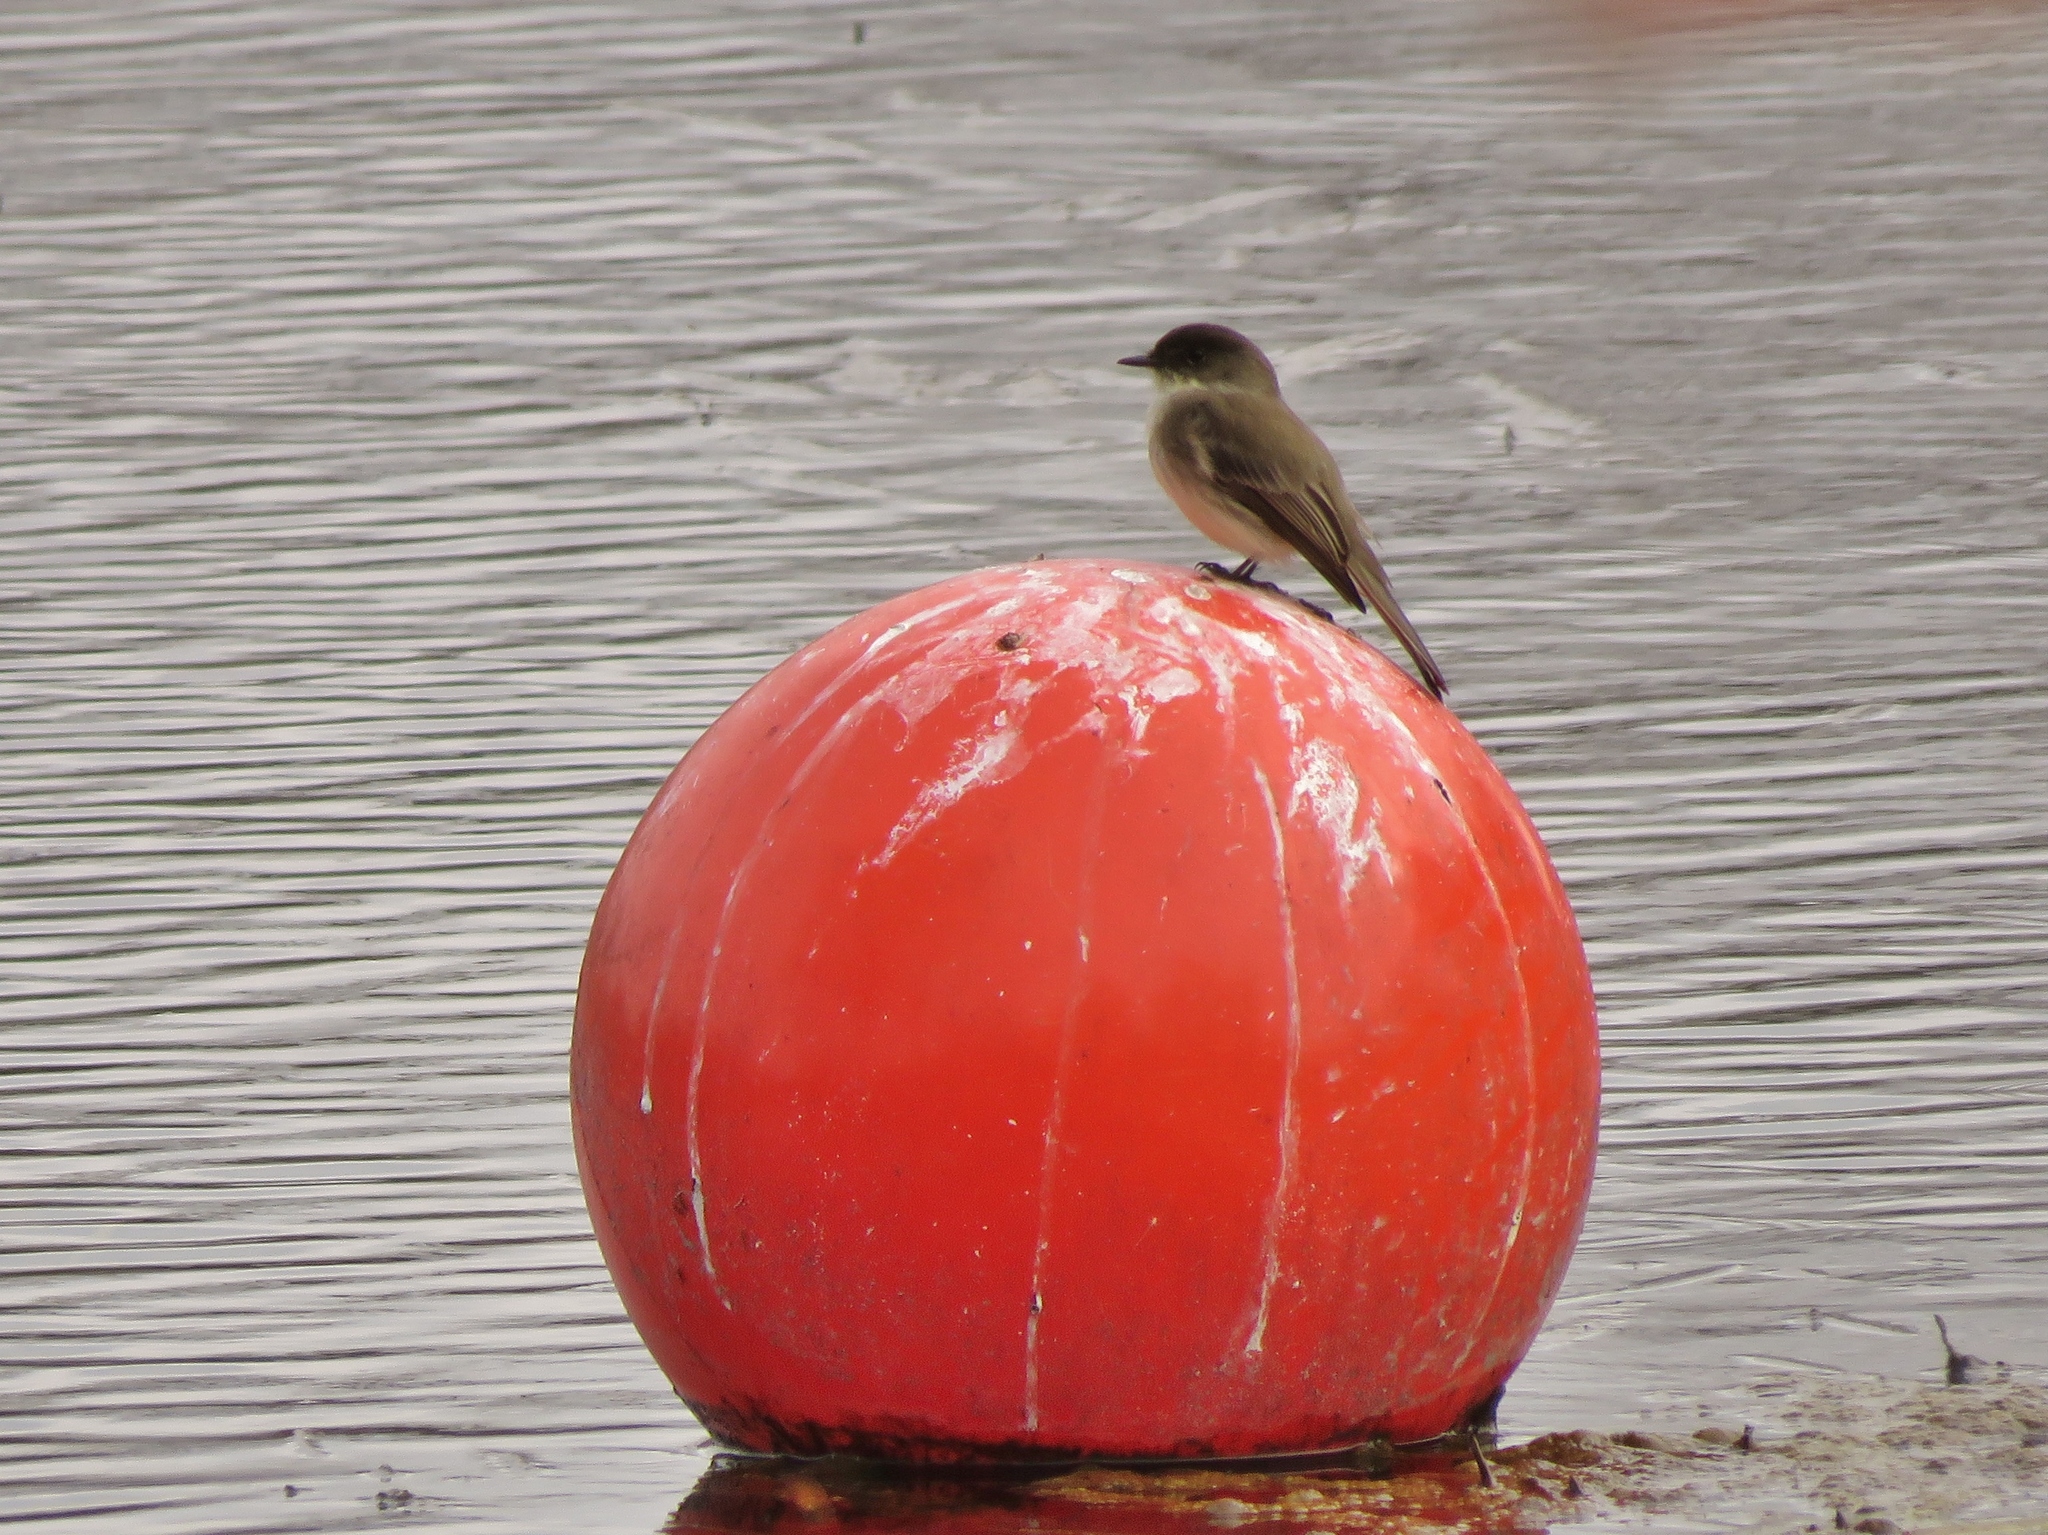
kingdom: Animalia
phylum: Chordata
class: Aves
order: Passeriformes
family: Tyrannidae
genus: Sayornis
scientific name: Sayornis phoebe
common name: Eastern phoebe
